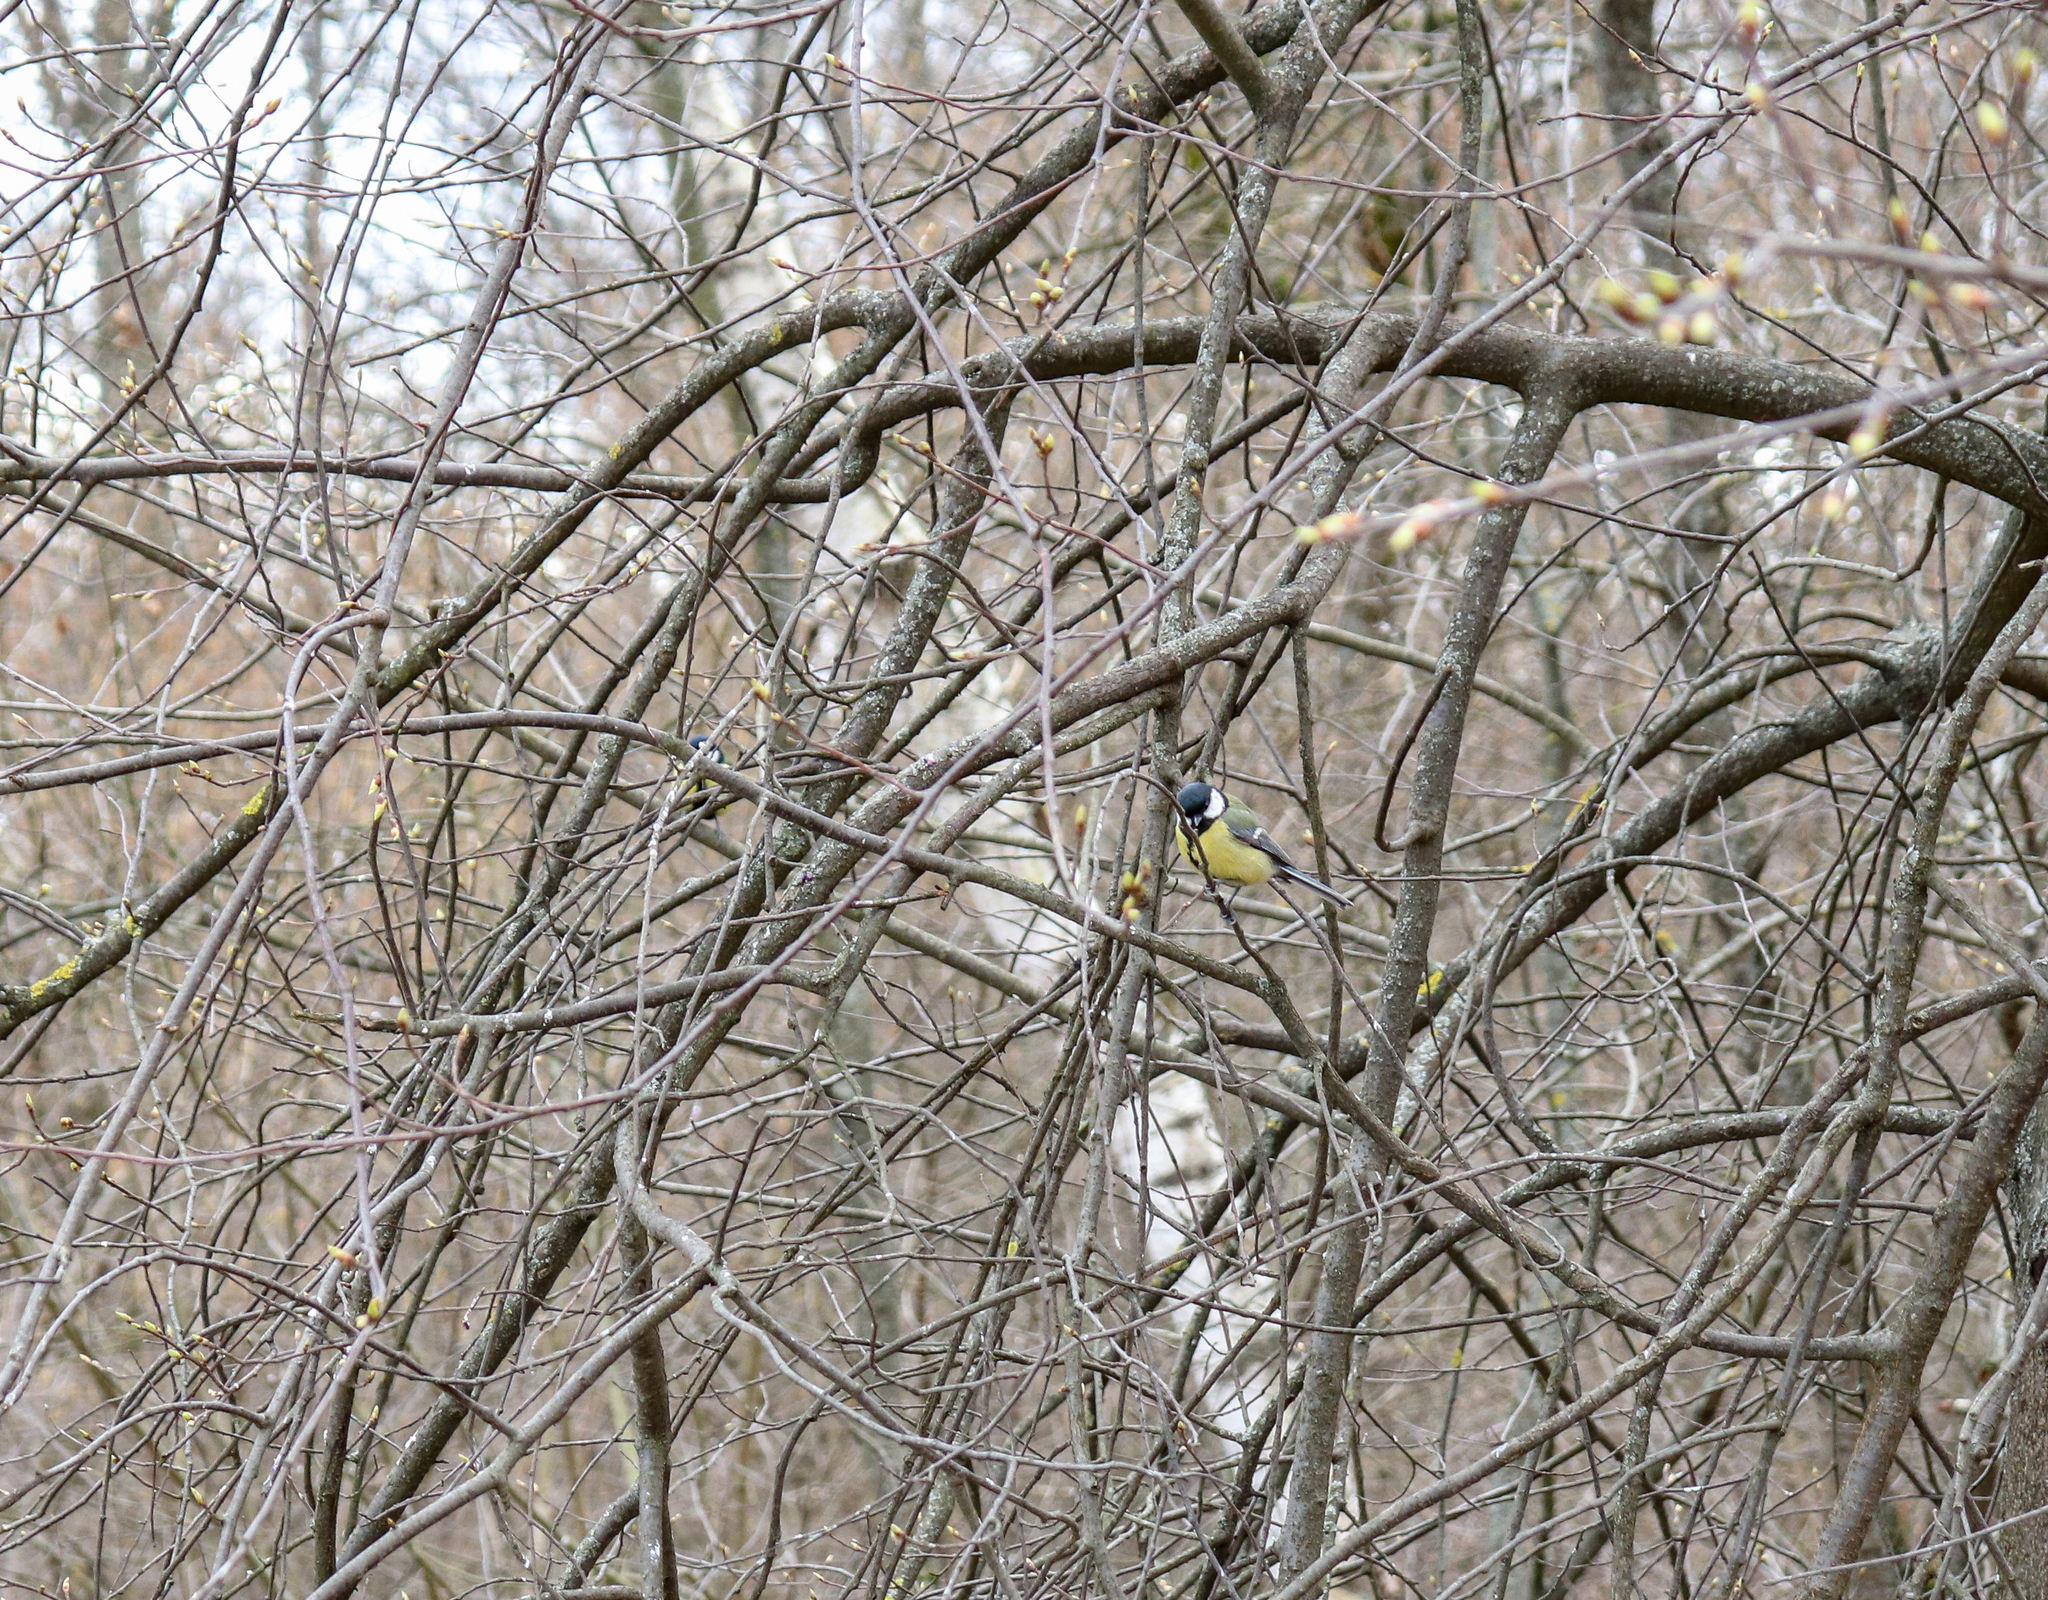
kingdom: Animalia
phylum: Chordata
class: Aves
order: Passeriformes
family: Paridae
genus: Parus
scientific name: Parus major
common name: Great tit
